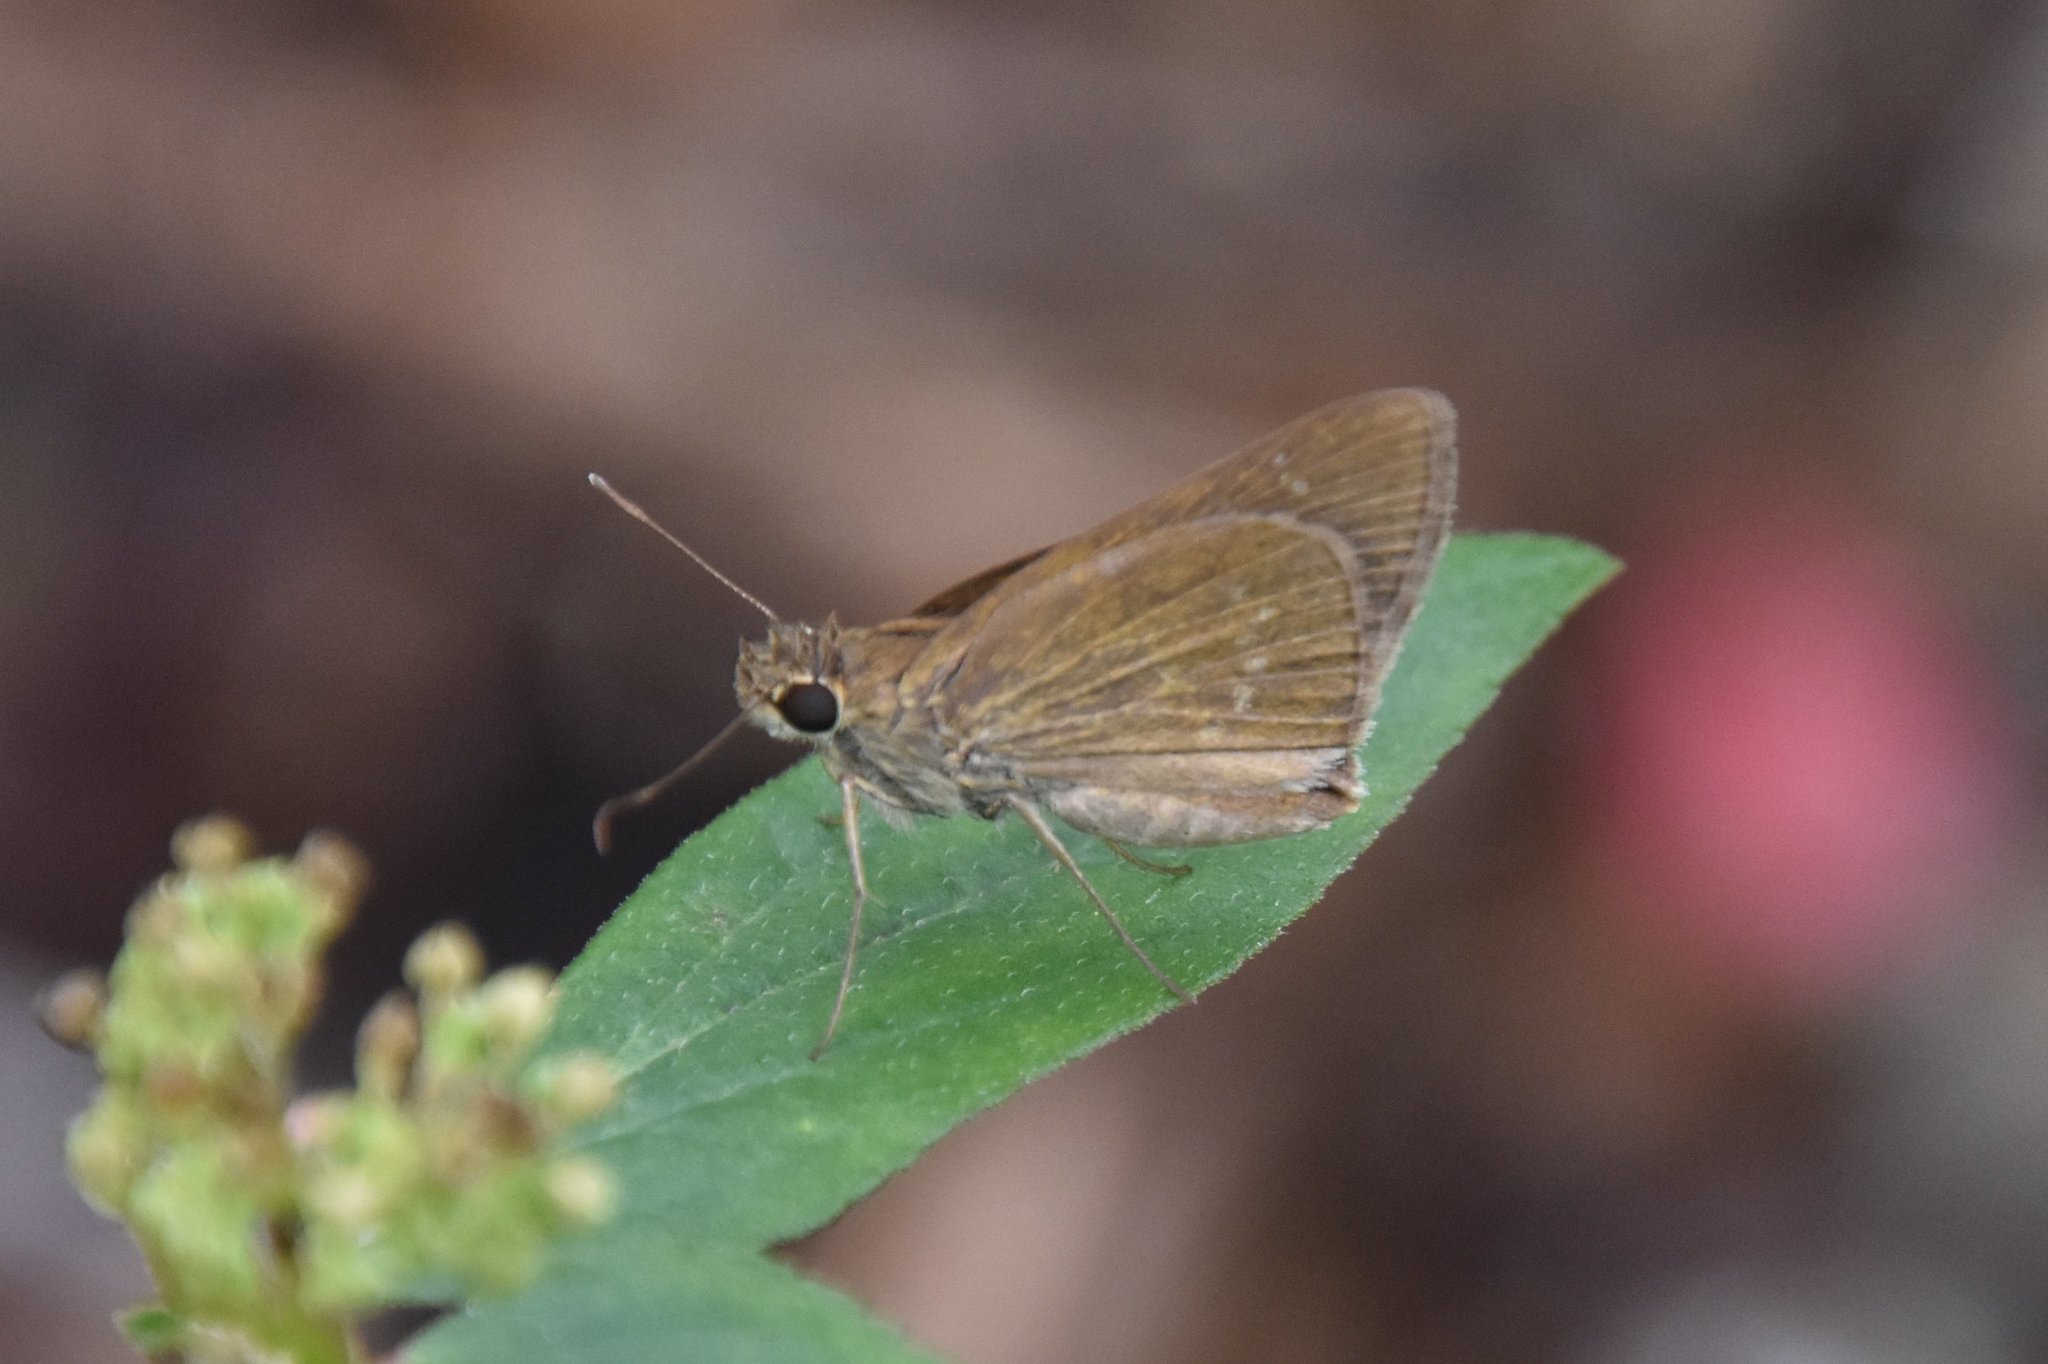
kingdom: Animalia
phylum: Arthropoda
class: Insecta
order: Lepidoptera
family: Hesperiidae
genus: Cymaenes
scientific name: Cymaenes tripunctus
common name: Dingy dotted skipper
